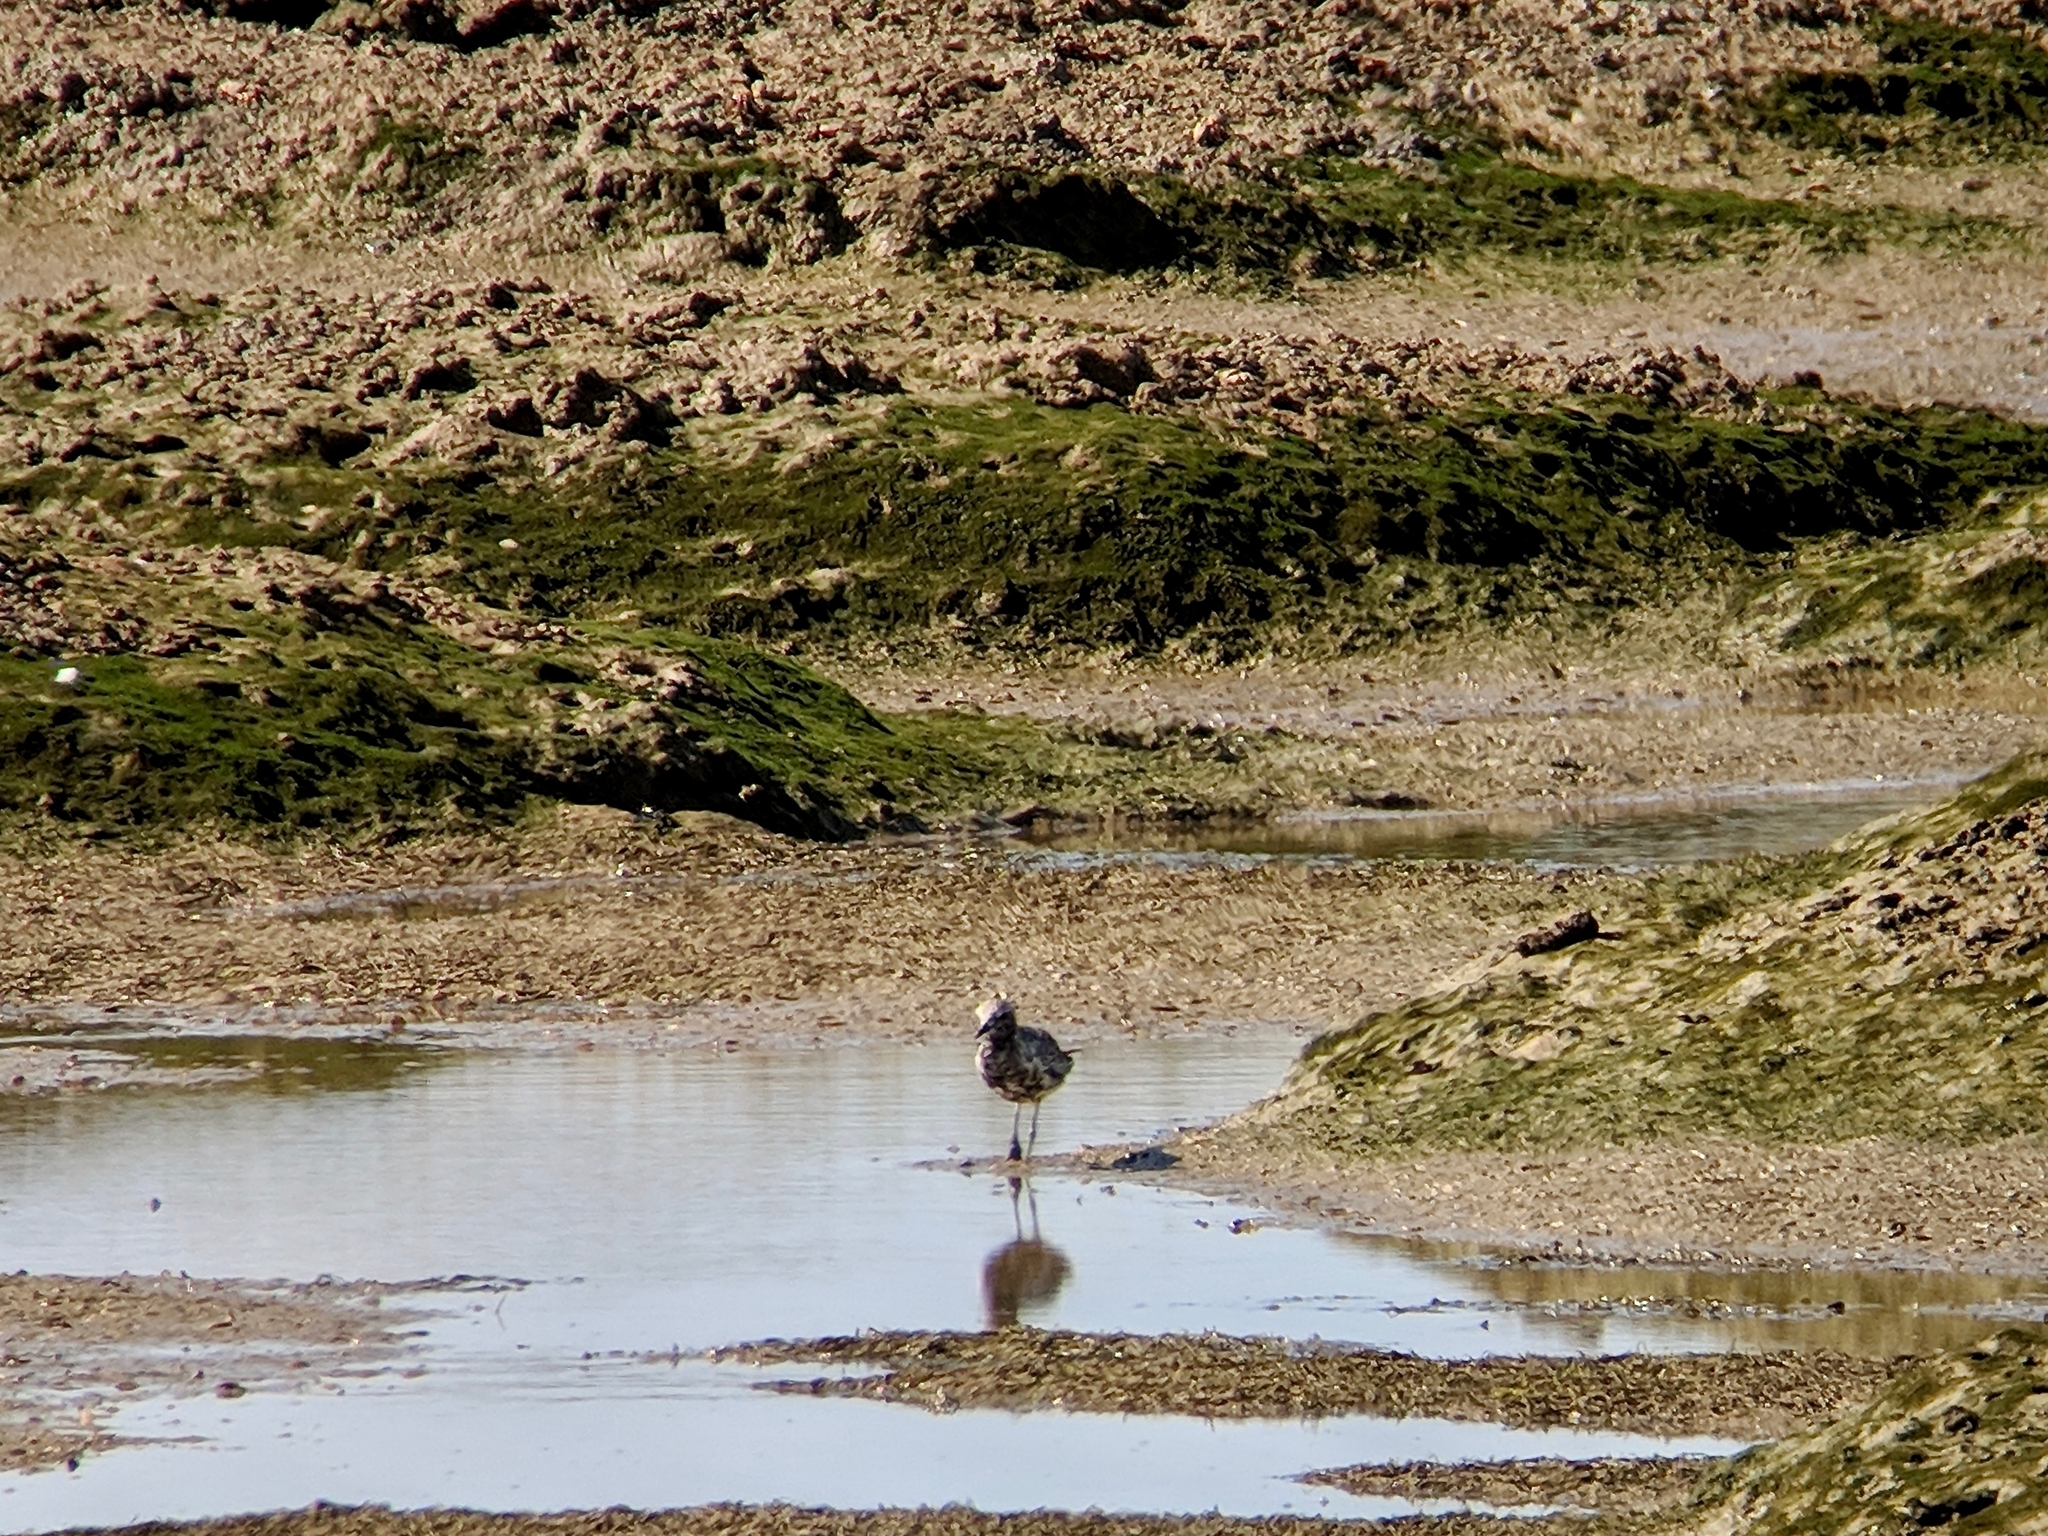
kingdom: Animalia
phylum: Chordata
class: Aves
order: Charadriiformes
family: Charadriidae
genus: Pluvialis
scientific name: Pluvialis squatarola
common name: Grey plover
